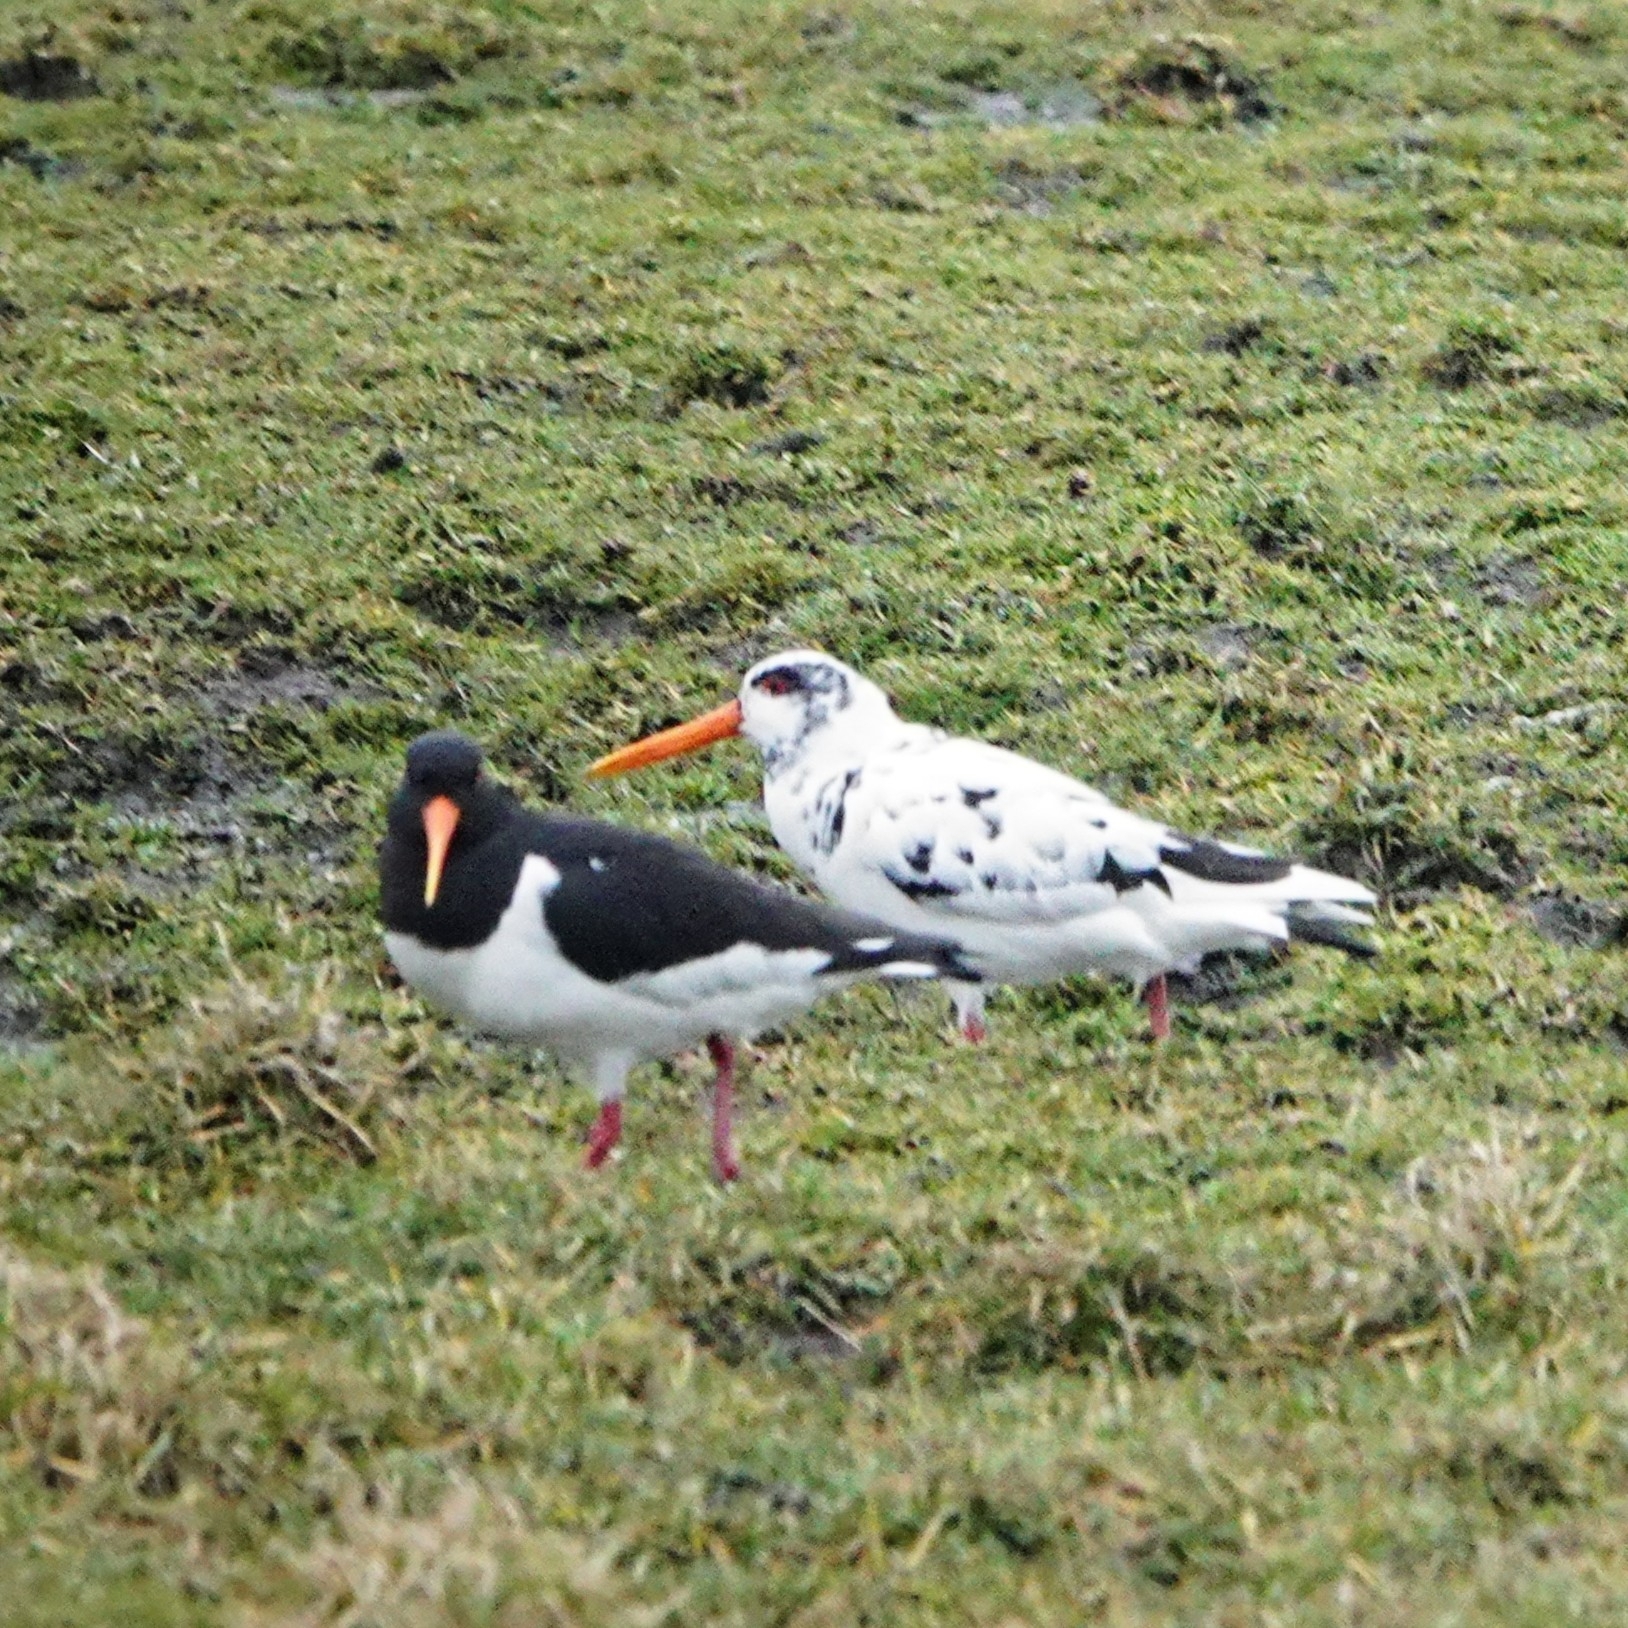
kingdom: Animalia
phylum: Chordata
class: Aves
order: Charadriiformes
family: Haematopodidae
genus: Haematopus
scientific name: Haematopus ostralegus
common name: Eurasian oystercatcher
